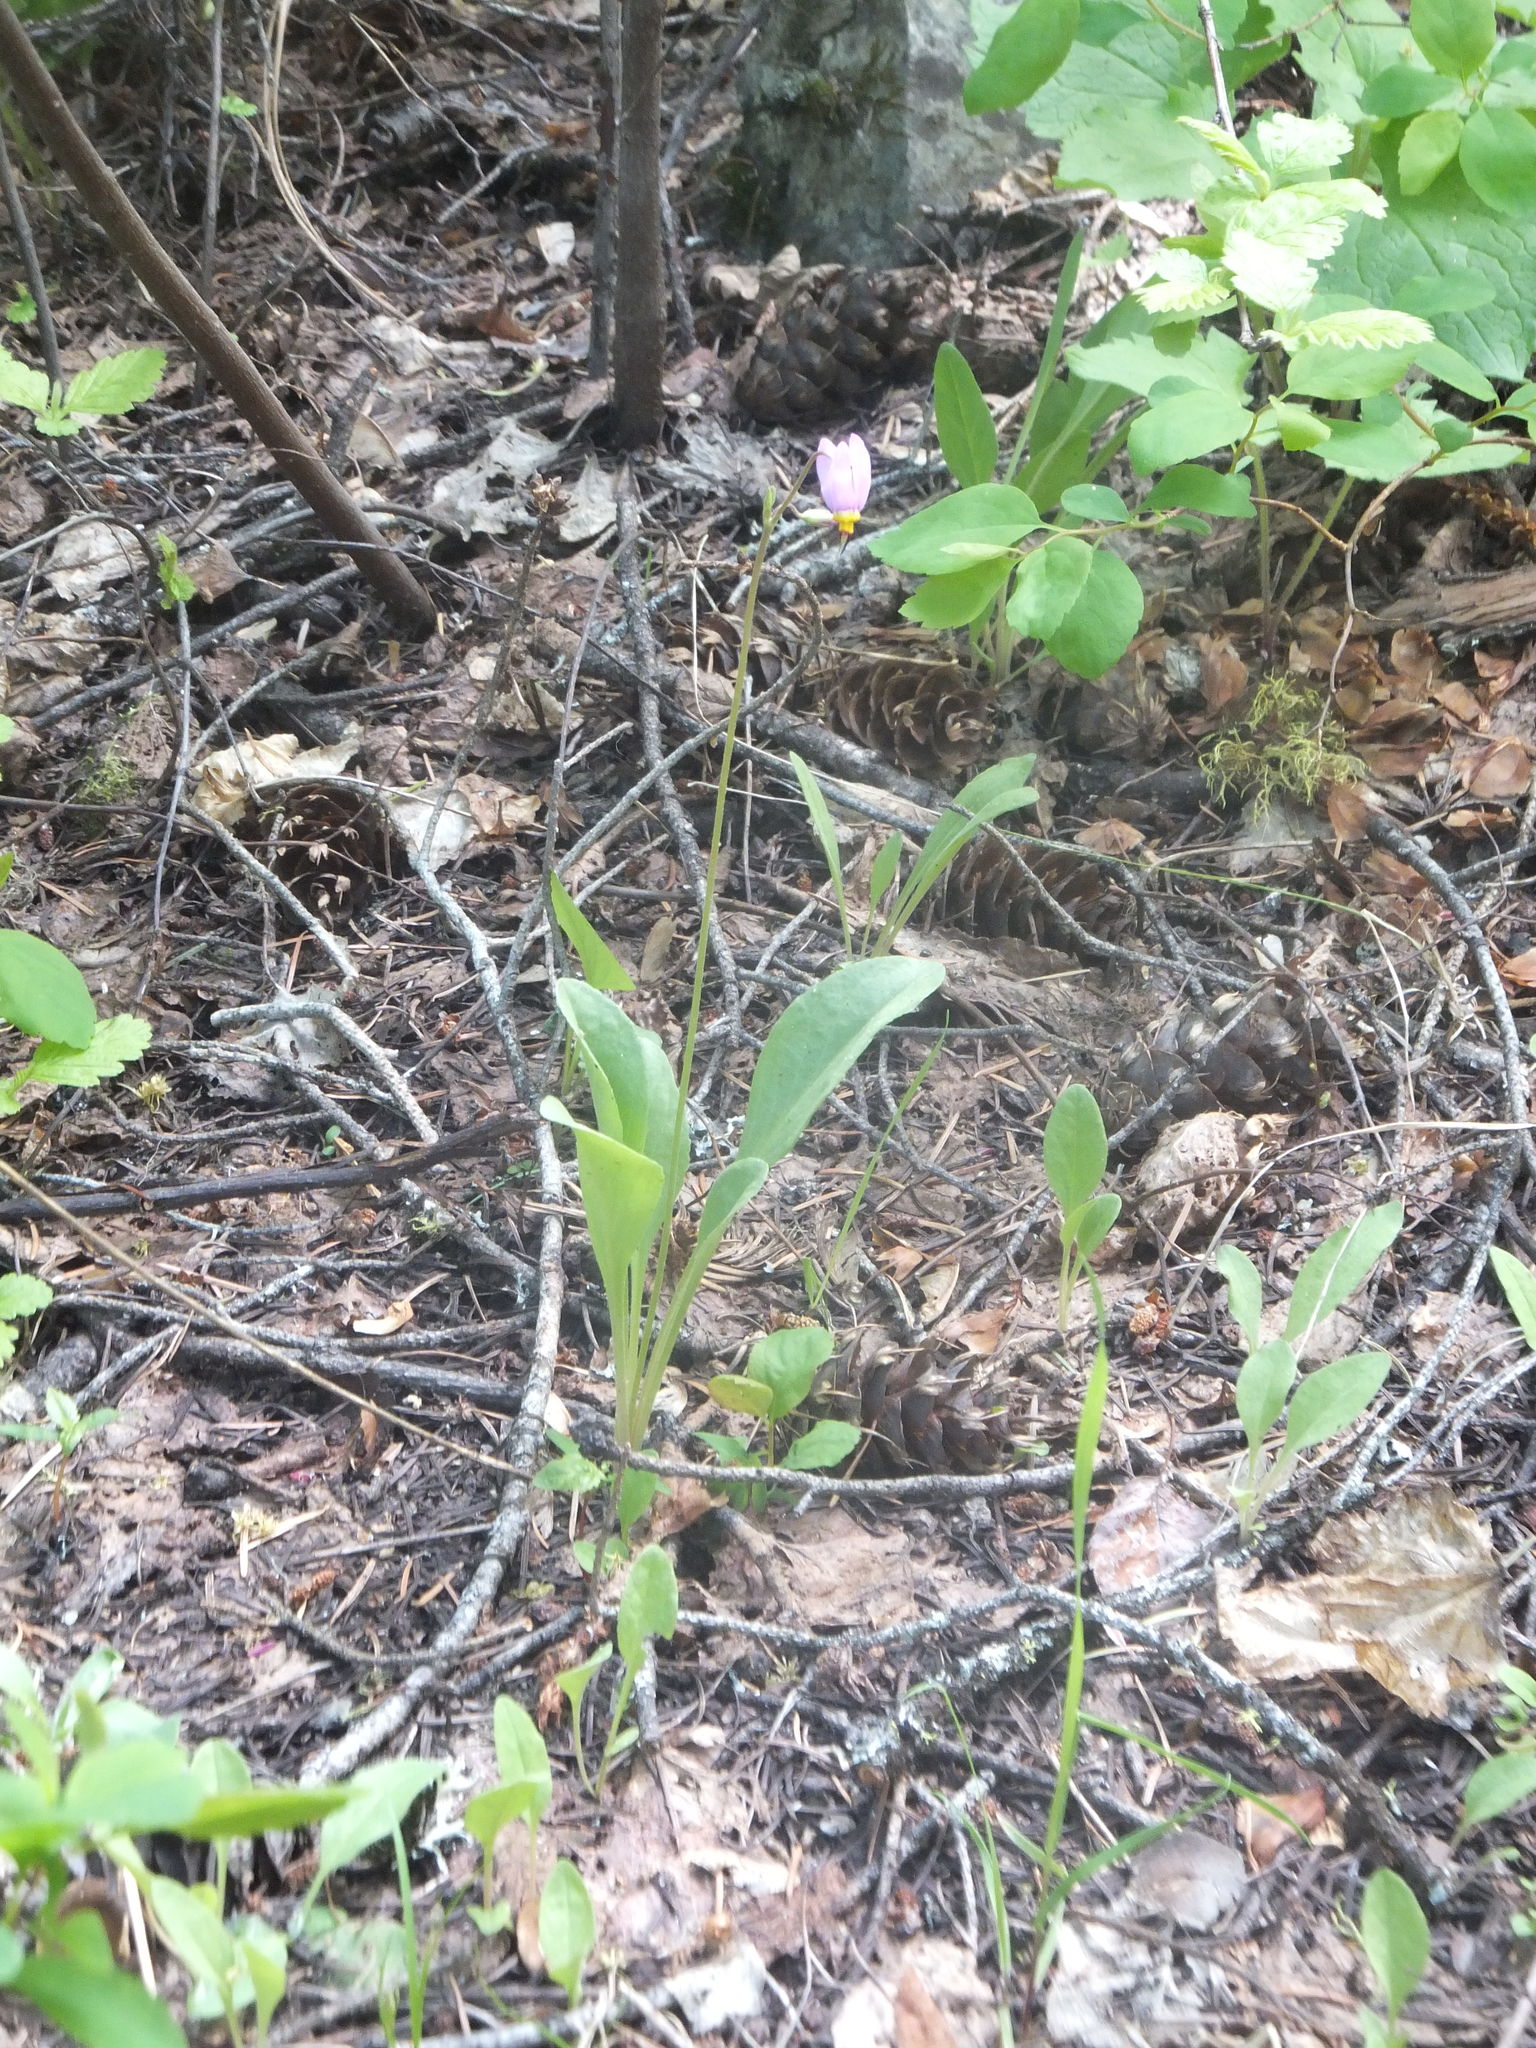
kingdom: Plantae
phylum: Tracheophyta
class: Magnoliopsida
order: Ericales
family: Primulaceae
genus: Dodecatheon
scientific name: Dodecatheon pulchellum
